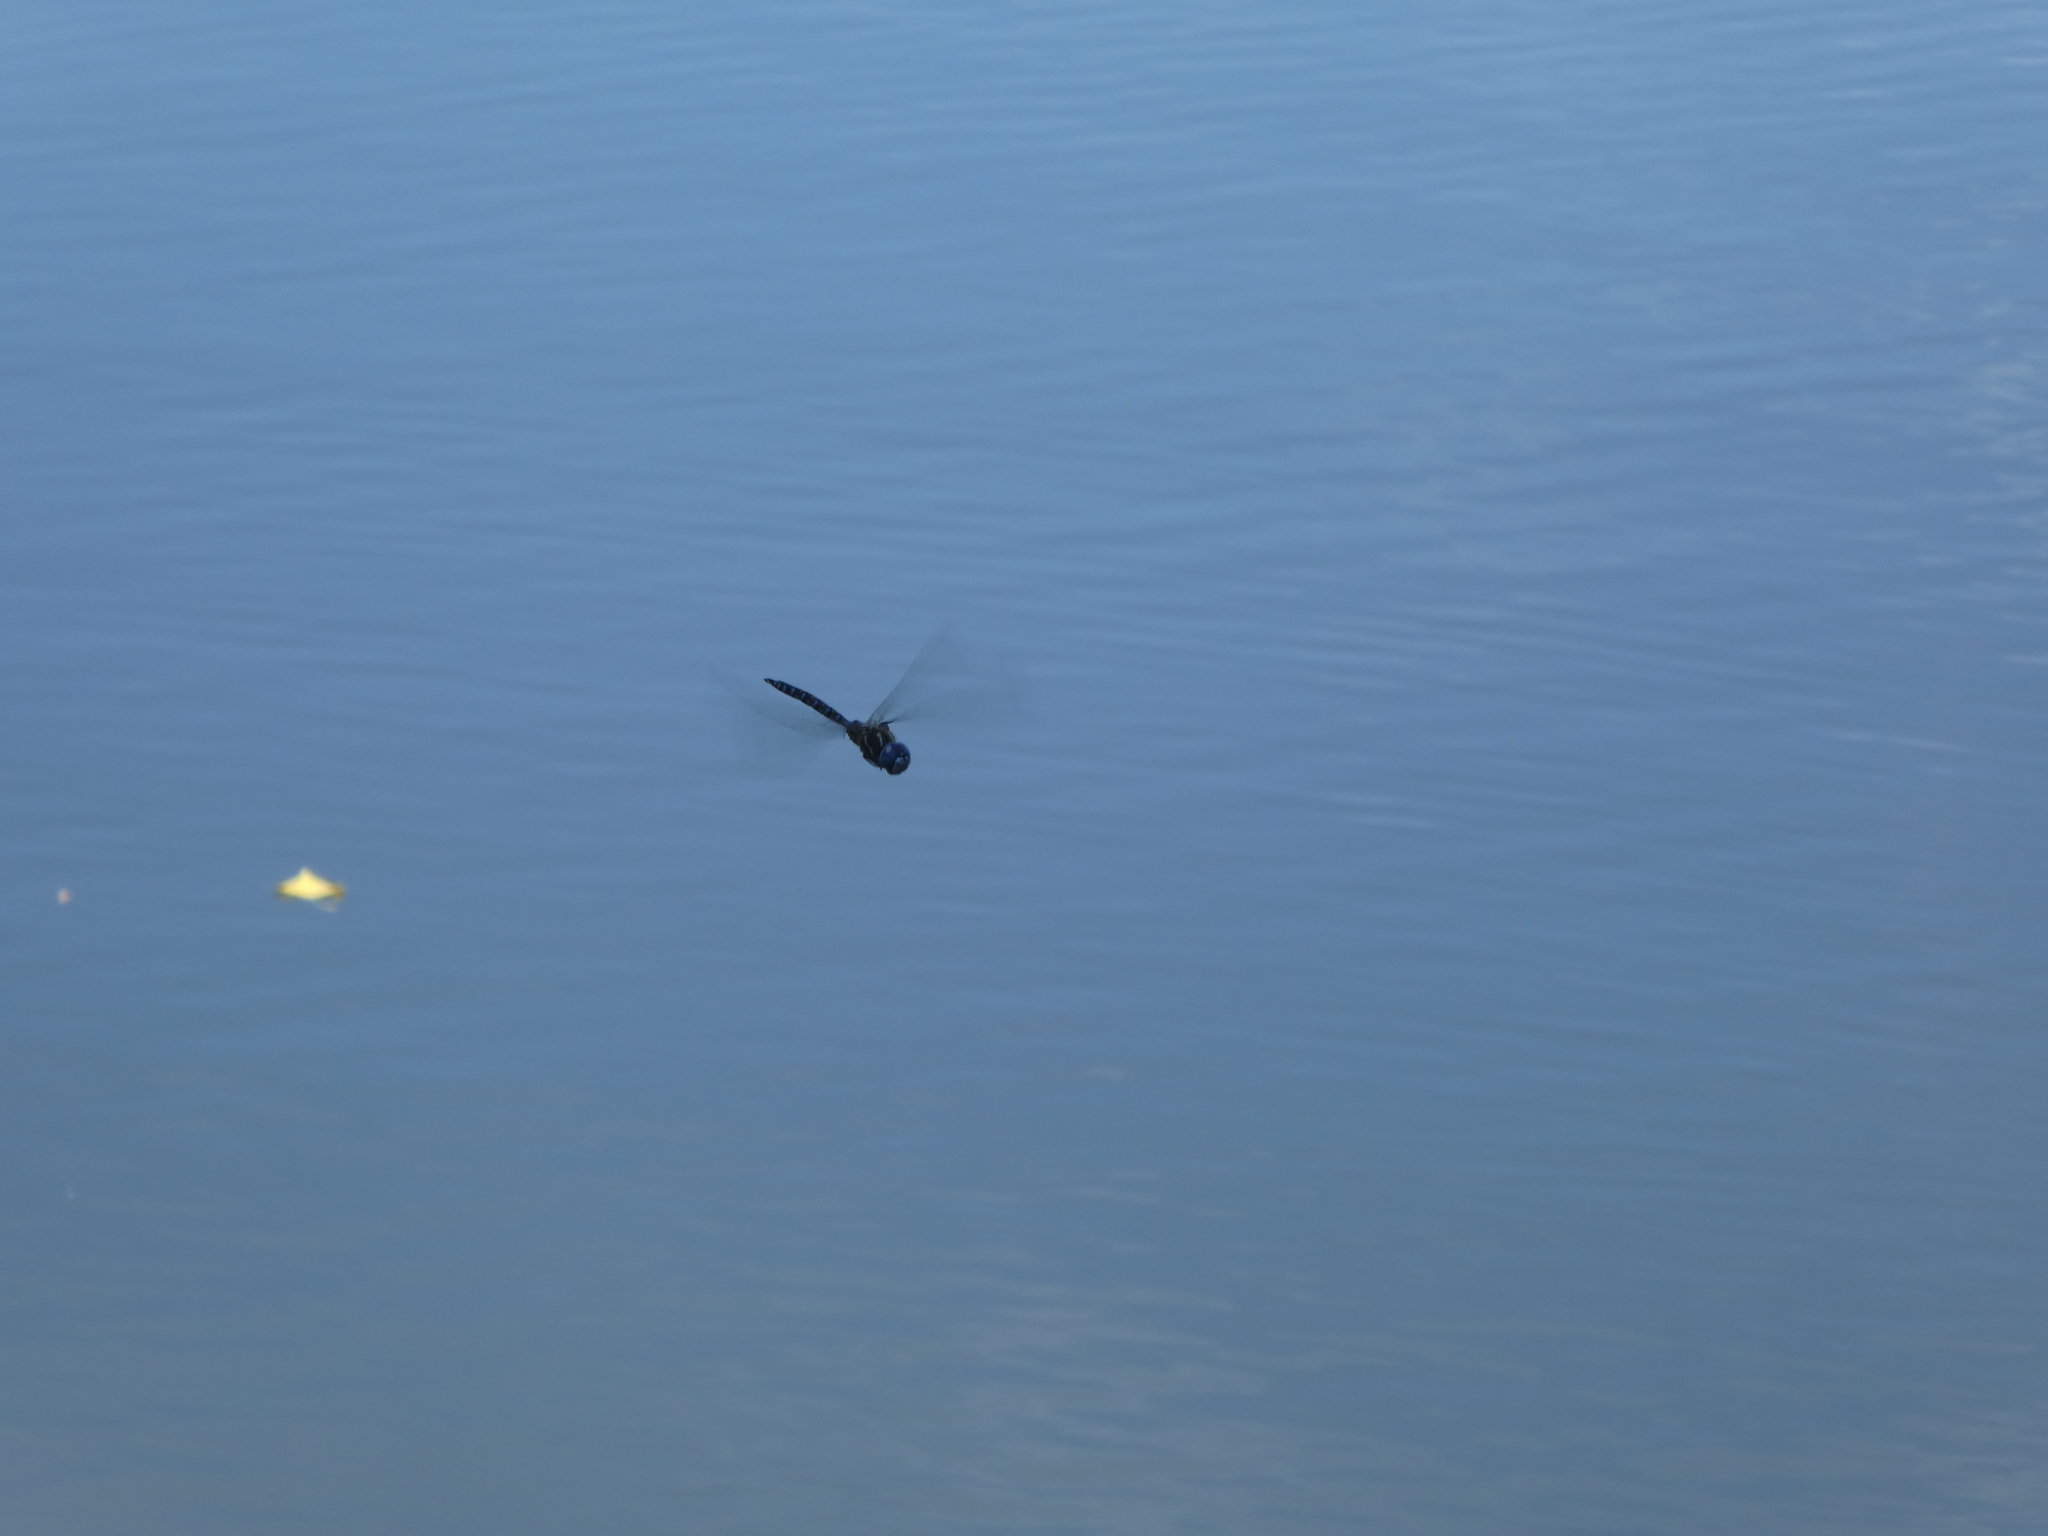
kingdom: Animalia
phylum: Arthropoda
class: Insecta
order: Odonata
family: Aeshnidae
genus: Rhionaeschna
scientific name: Rhionaeschna multicolor
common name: Blue-eyed darner
